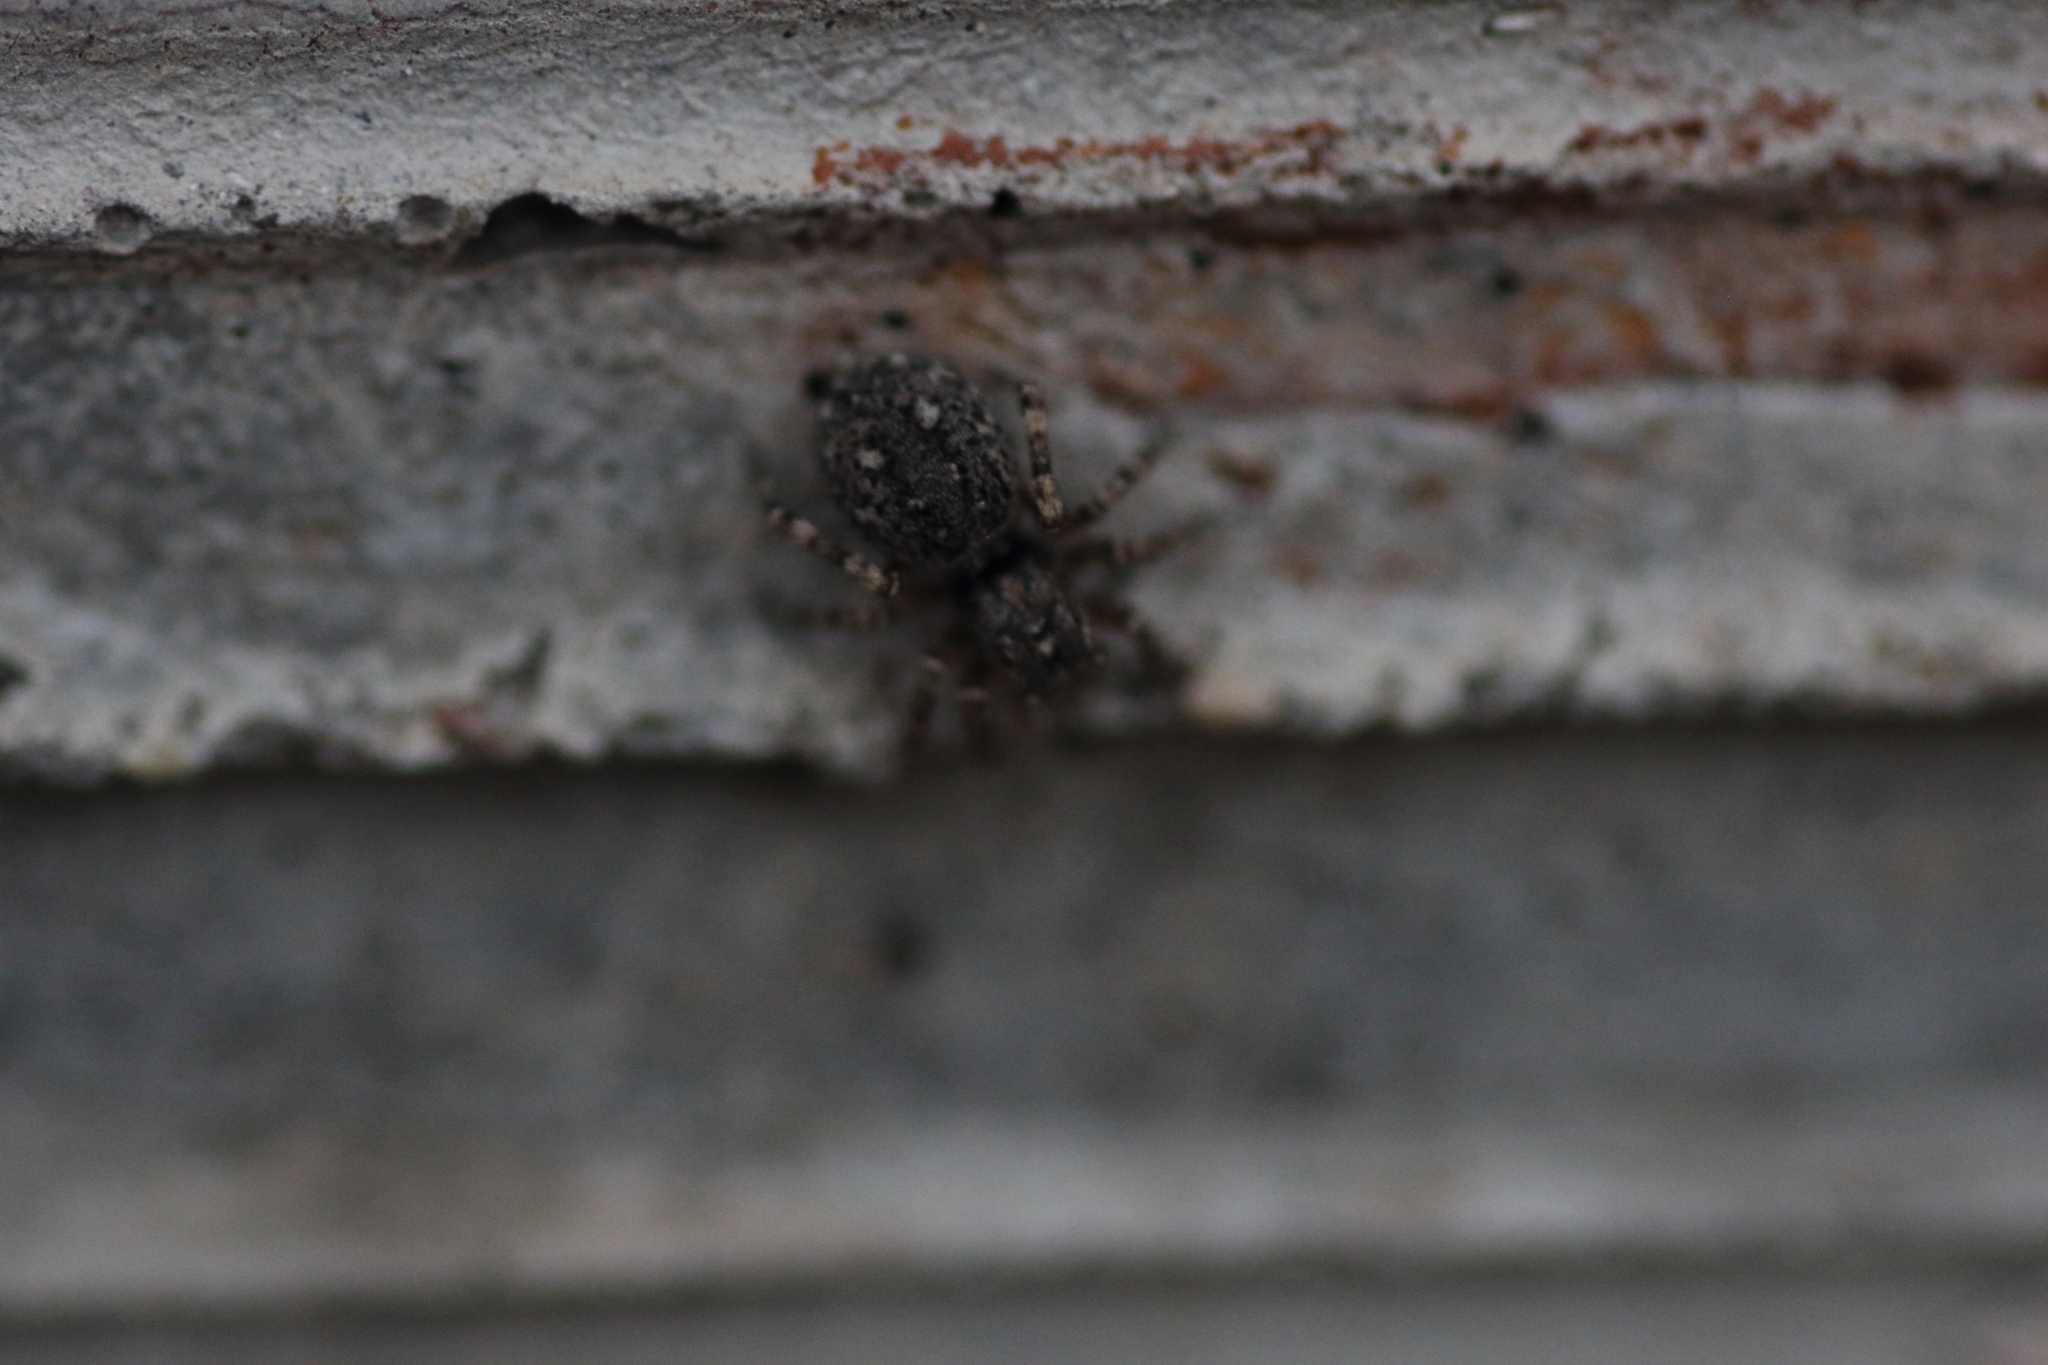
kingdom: Animalia
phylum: Arthropoda
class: Arachnida
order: Araneae
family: Salticidae
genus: Attulus
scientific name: Attulus pubescens
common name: Jumping spider
